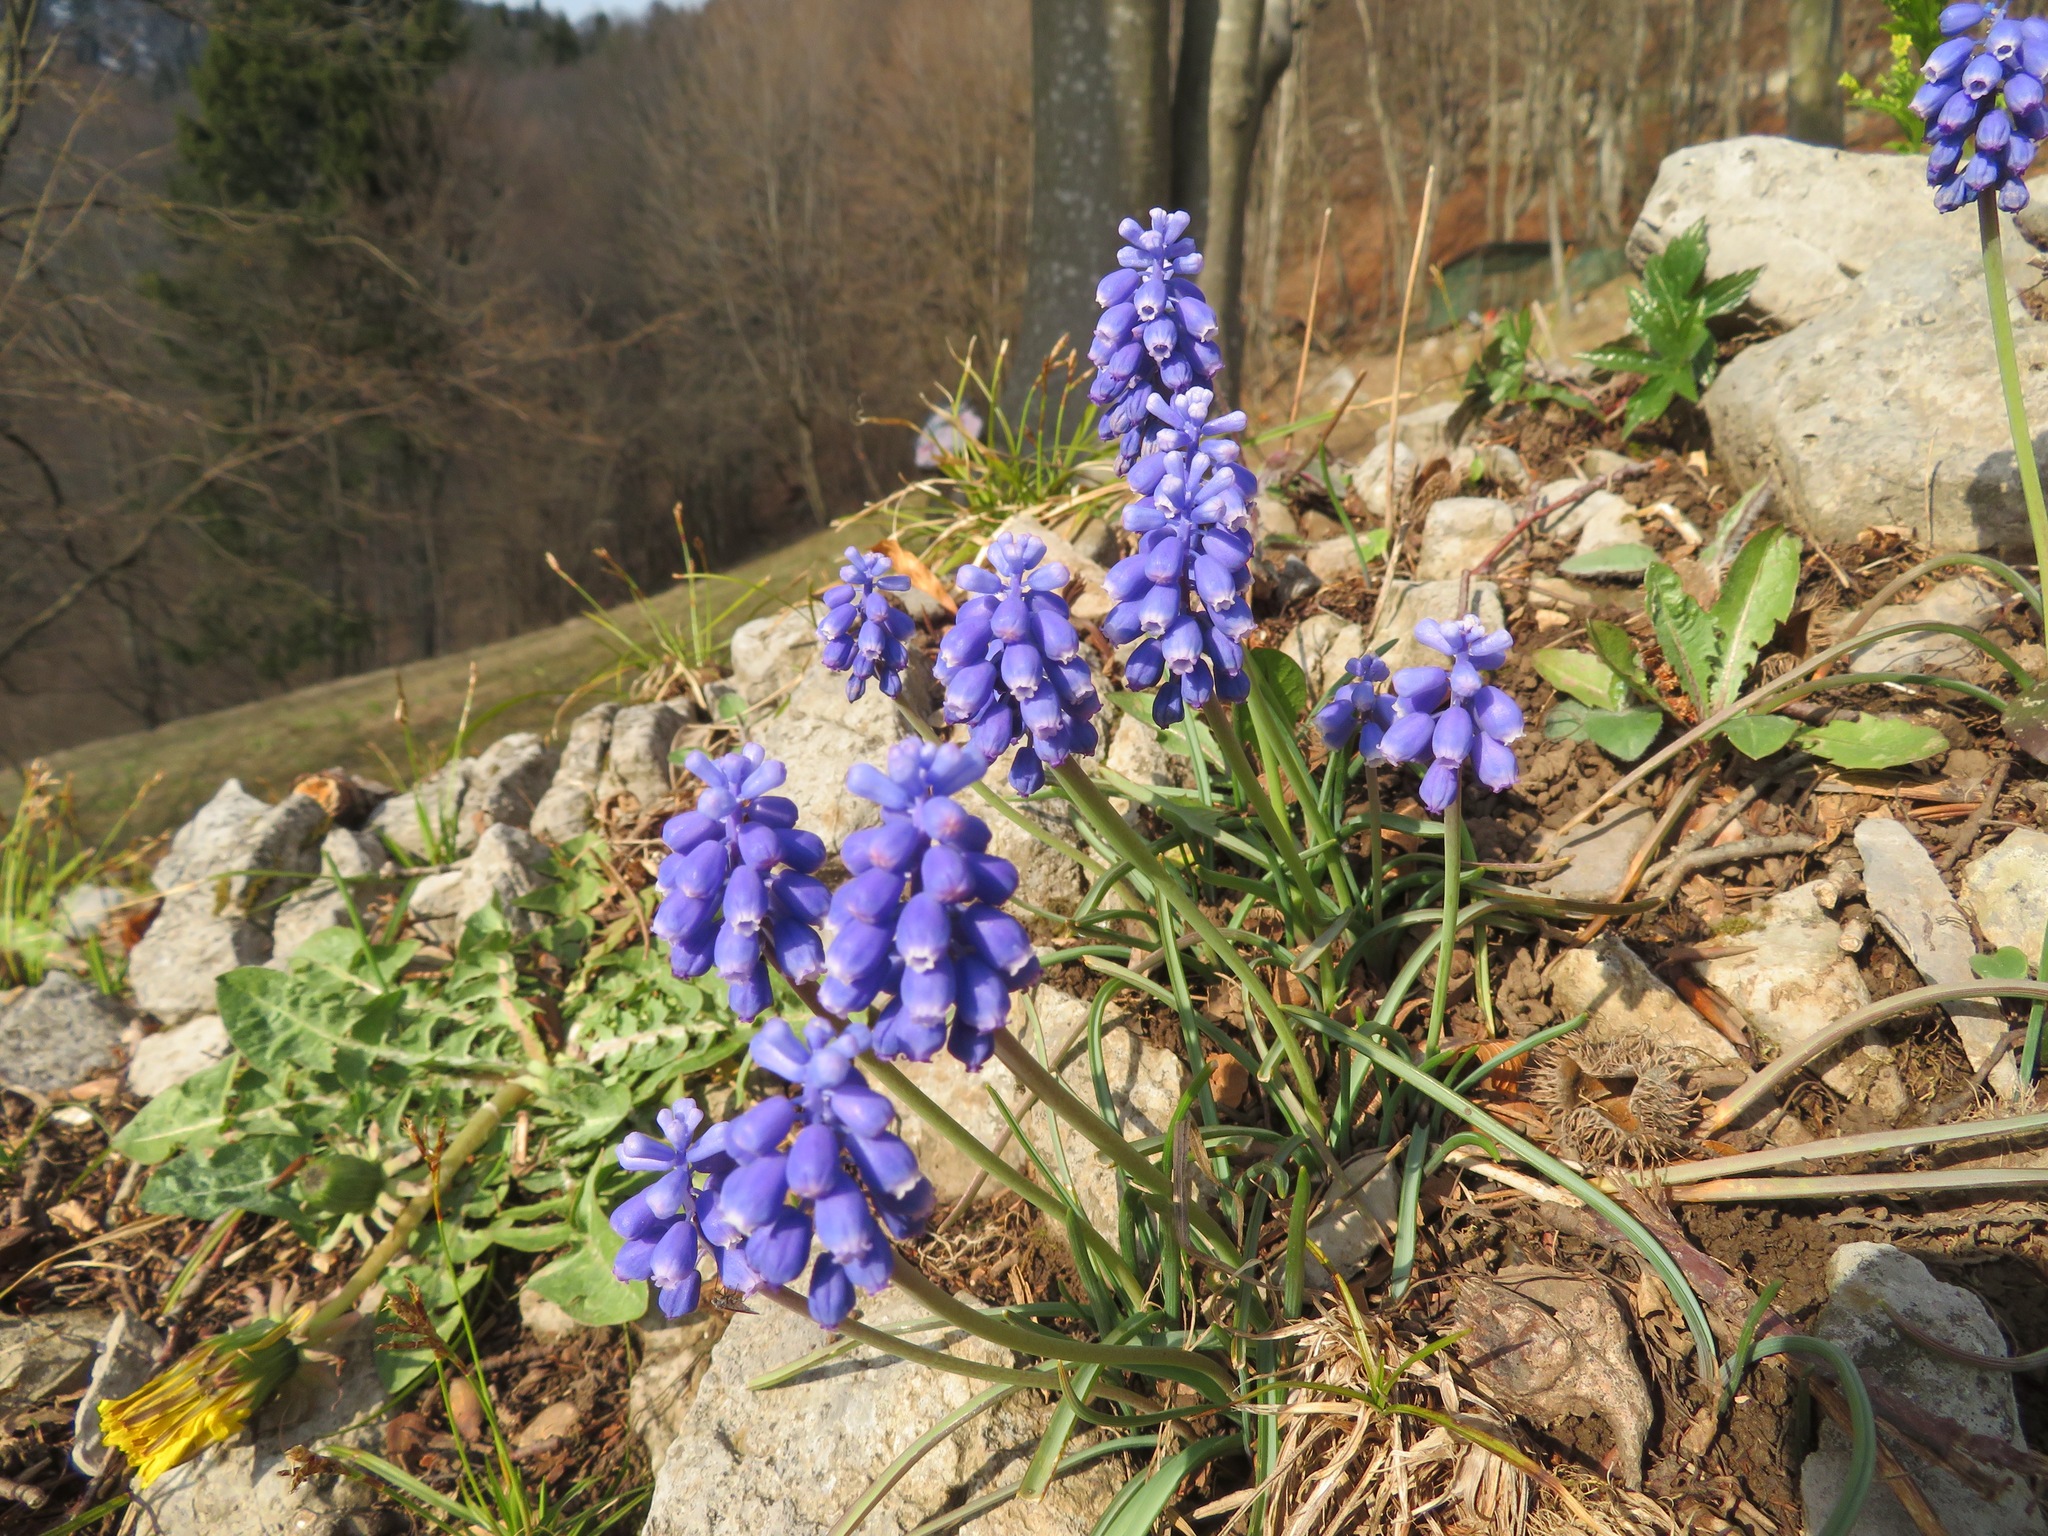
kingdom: Plantae
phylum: Tracheophyta
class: Liliopsida
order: Asparagales
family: Asparagaceae
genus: Muscari
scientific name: Muscari armeniacum
